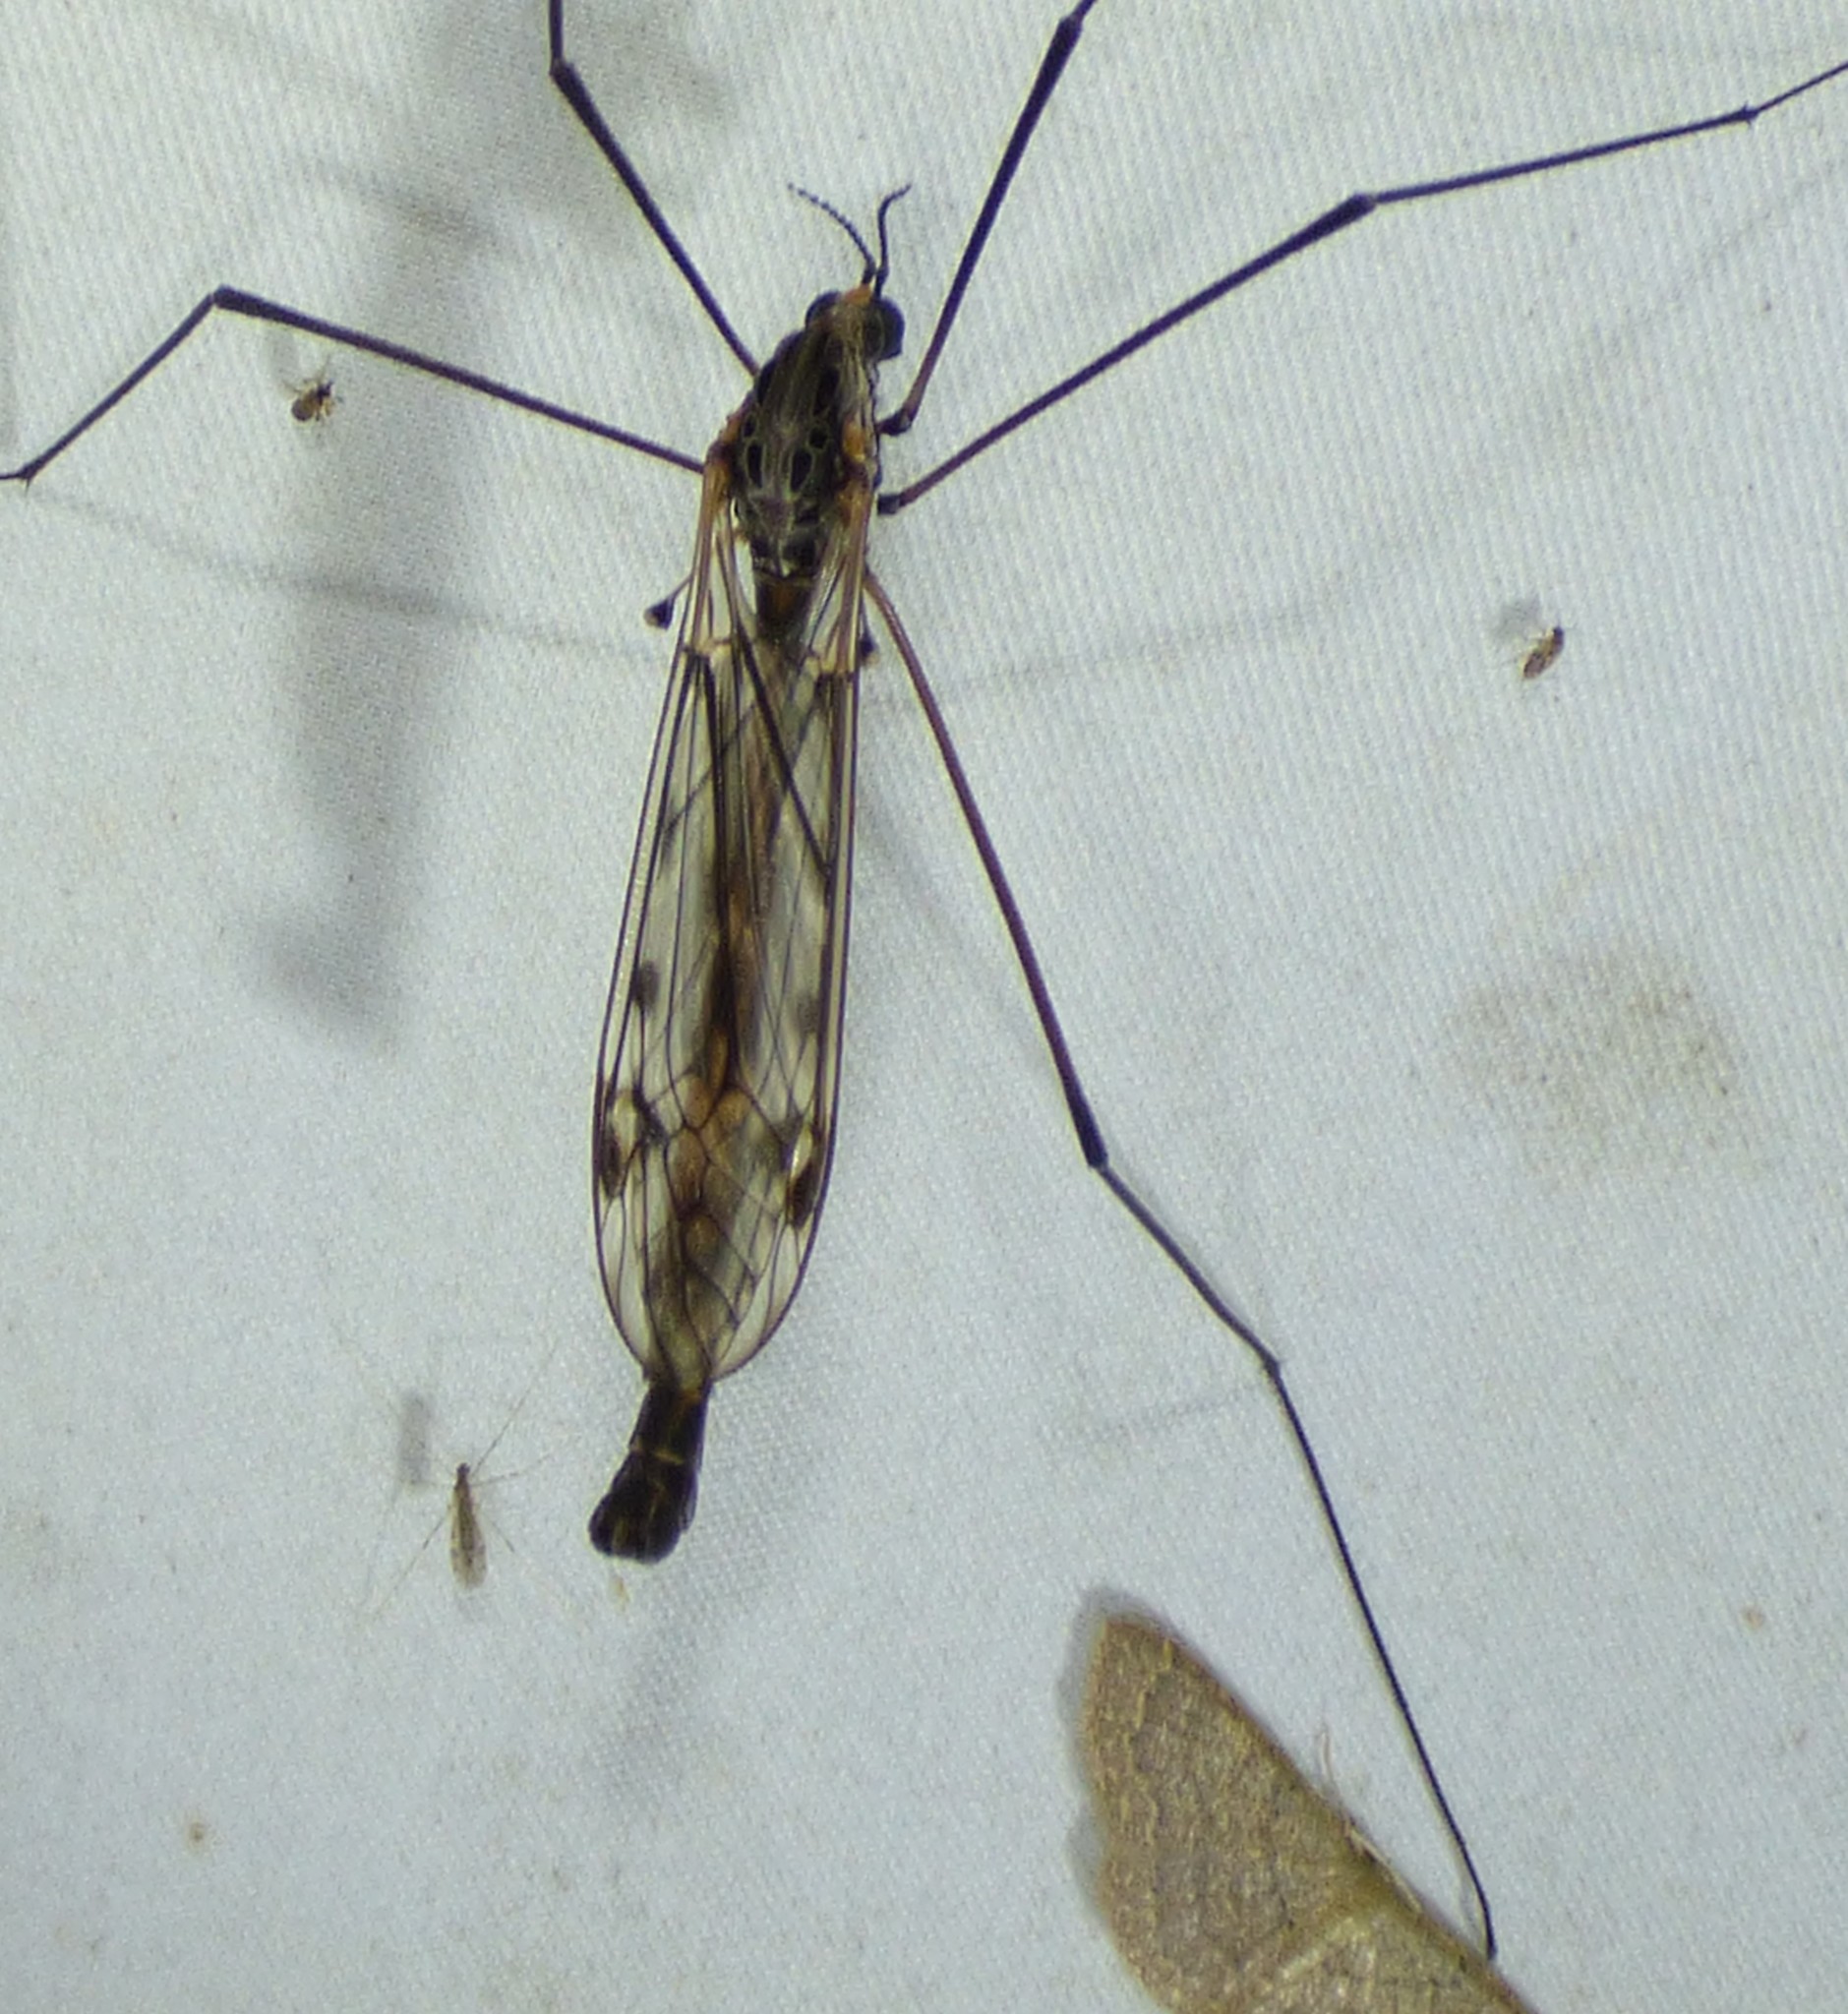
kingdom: Animalia
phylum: Arthropoda
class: Insecta
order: Diptera
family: Tipulidae
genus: Tipula
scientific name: Tipula metacomet
